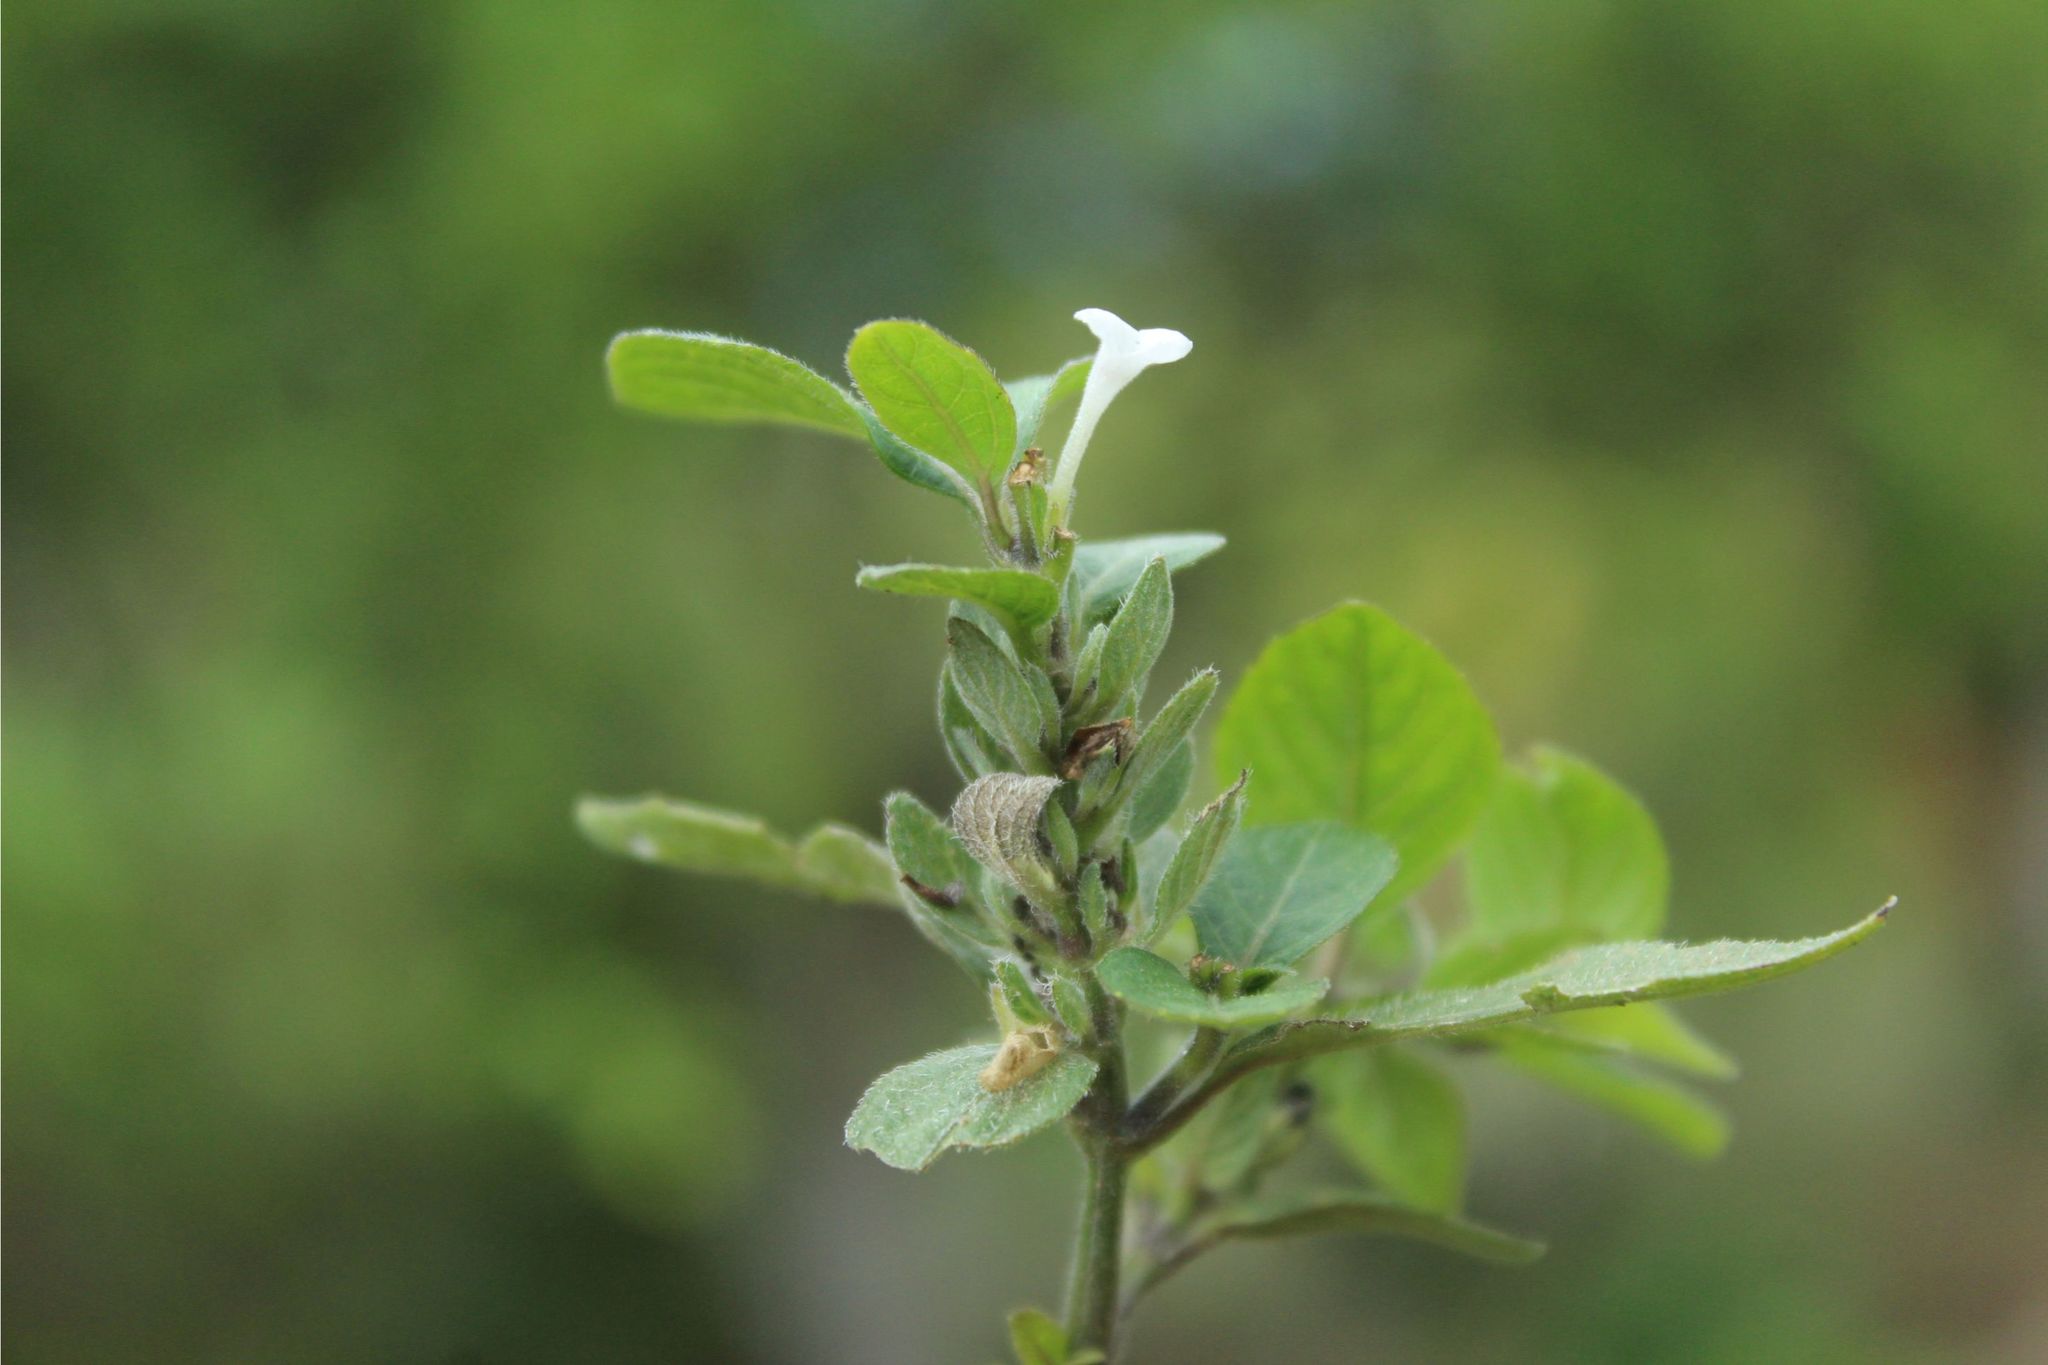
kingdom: Plantae
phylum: Tracheophyta
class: Magnoliopsida
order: Lamiales
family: Acanthaceae
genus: Ruellia
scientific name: Ruellia blechum
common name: Browne's blechum
